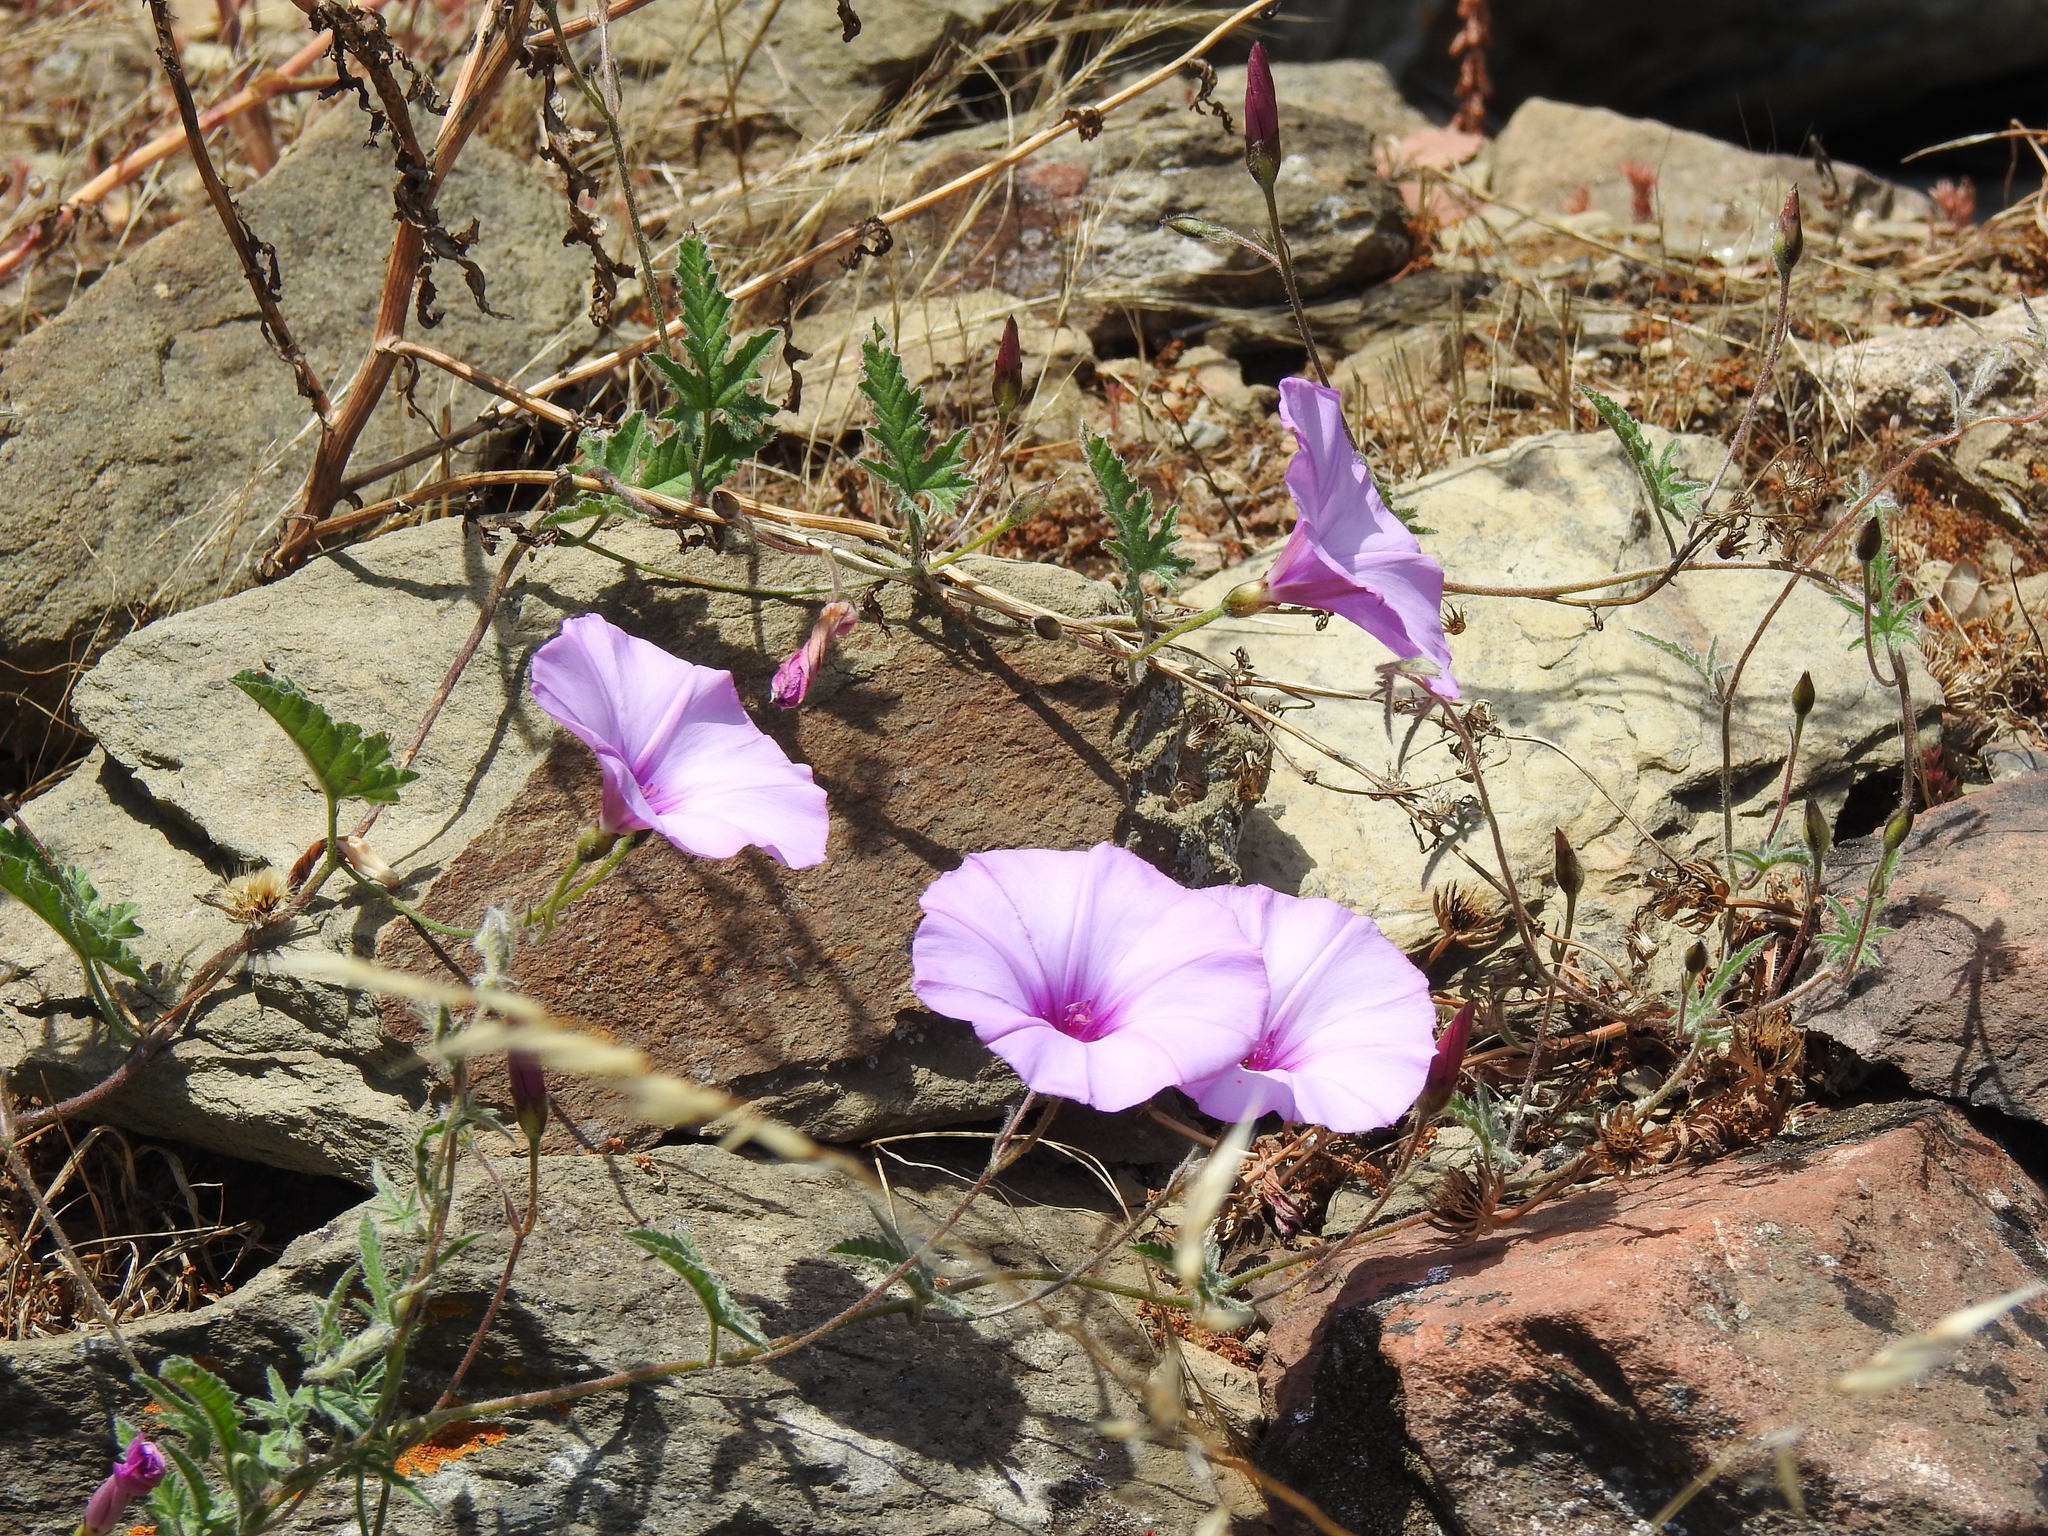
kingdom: Plantae
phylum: Tracheophyta
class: Magnoliopsida
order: Solanales
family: Convolvulaceae
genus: Convolvulus
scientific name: Convolvulus althaeoides
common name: Mallow bindweed
